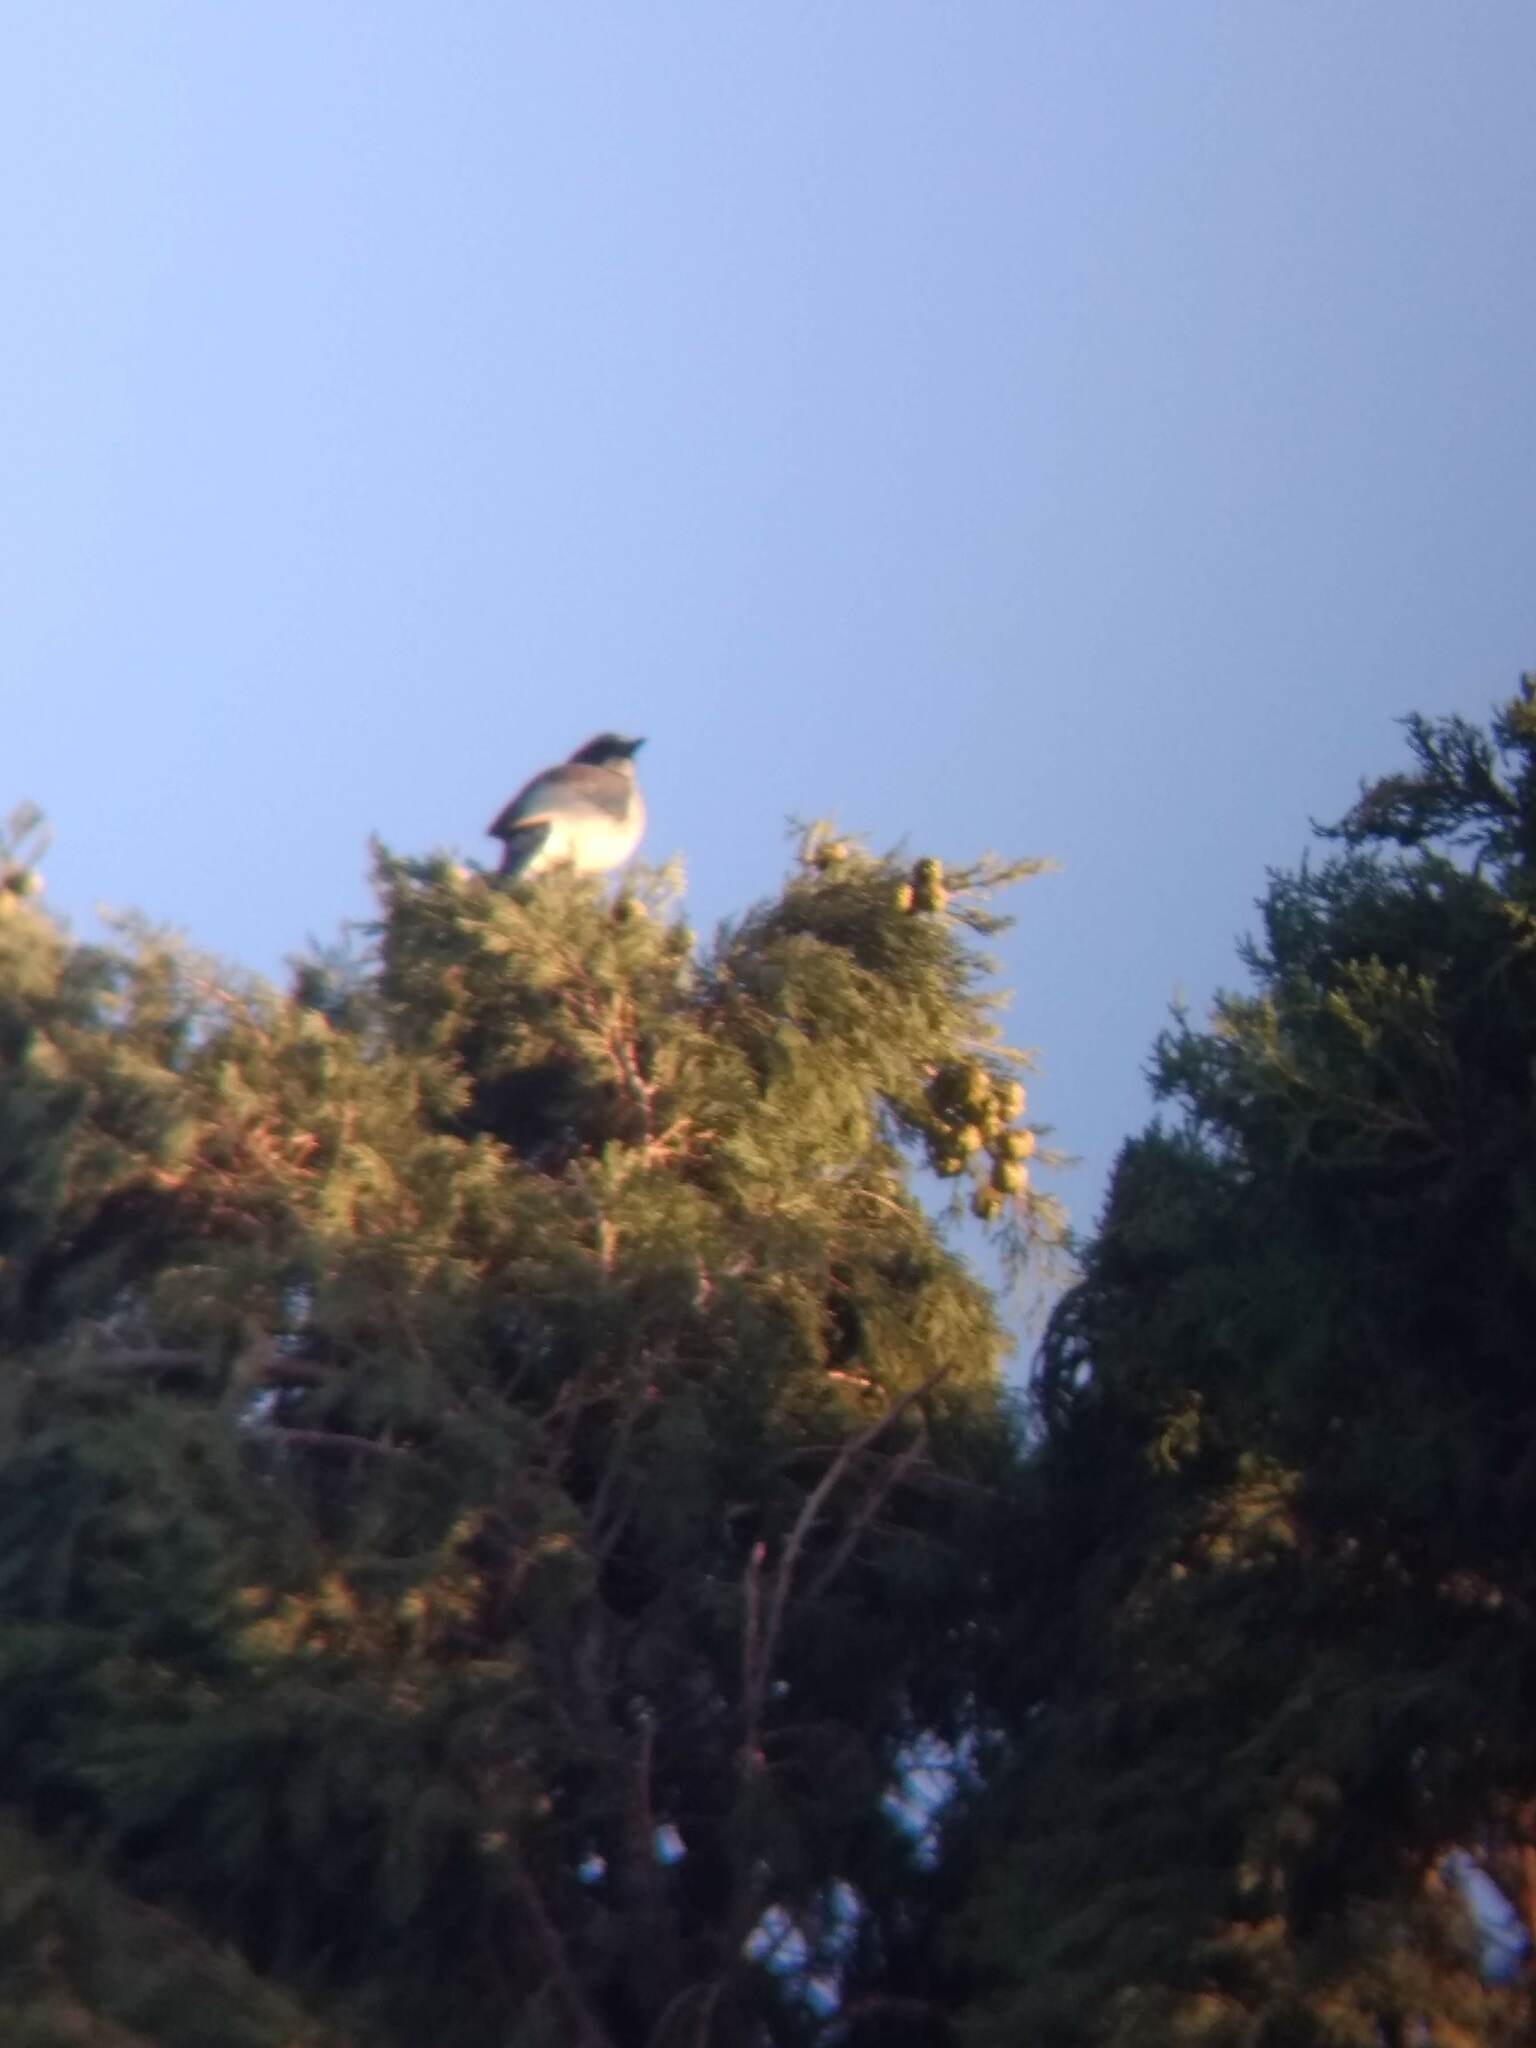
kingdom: Animalia
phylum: Chordata
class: Aves
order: Passeriformes
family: Corvidae
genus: Aphelocoma
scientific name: Aphelocoma californica
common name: California scrub-jay
